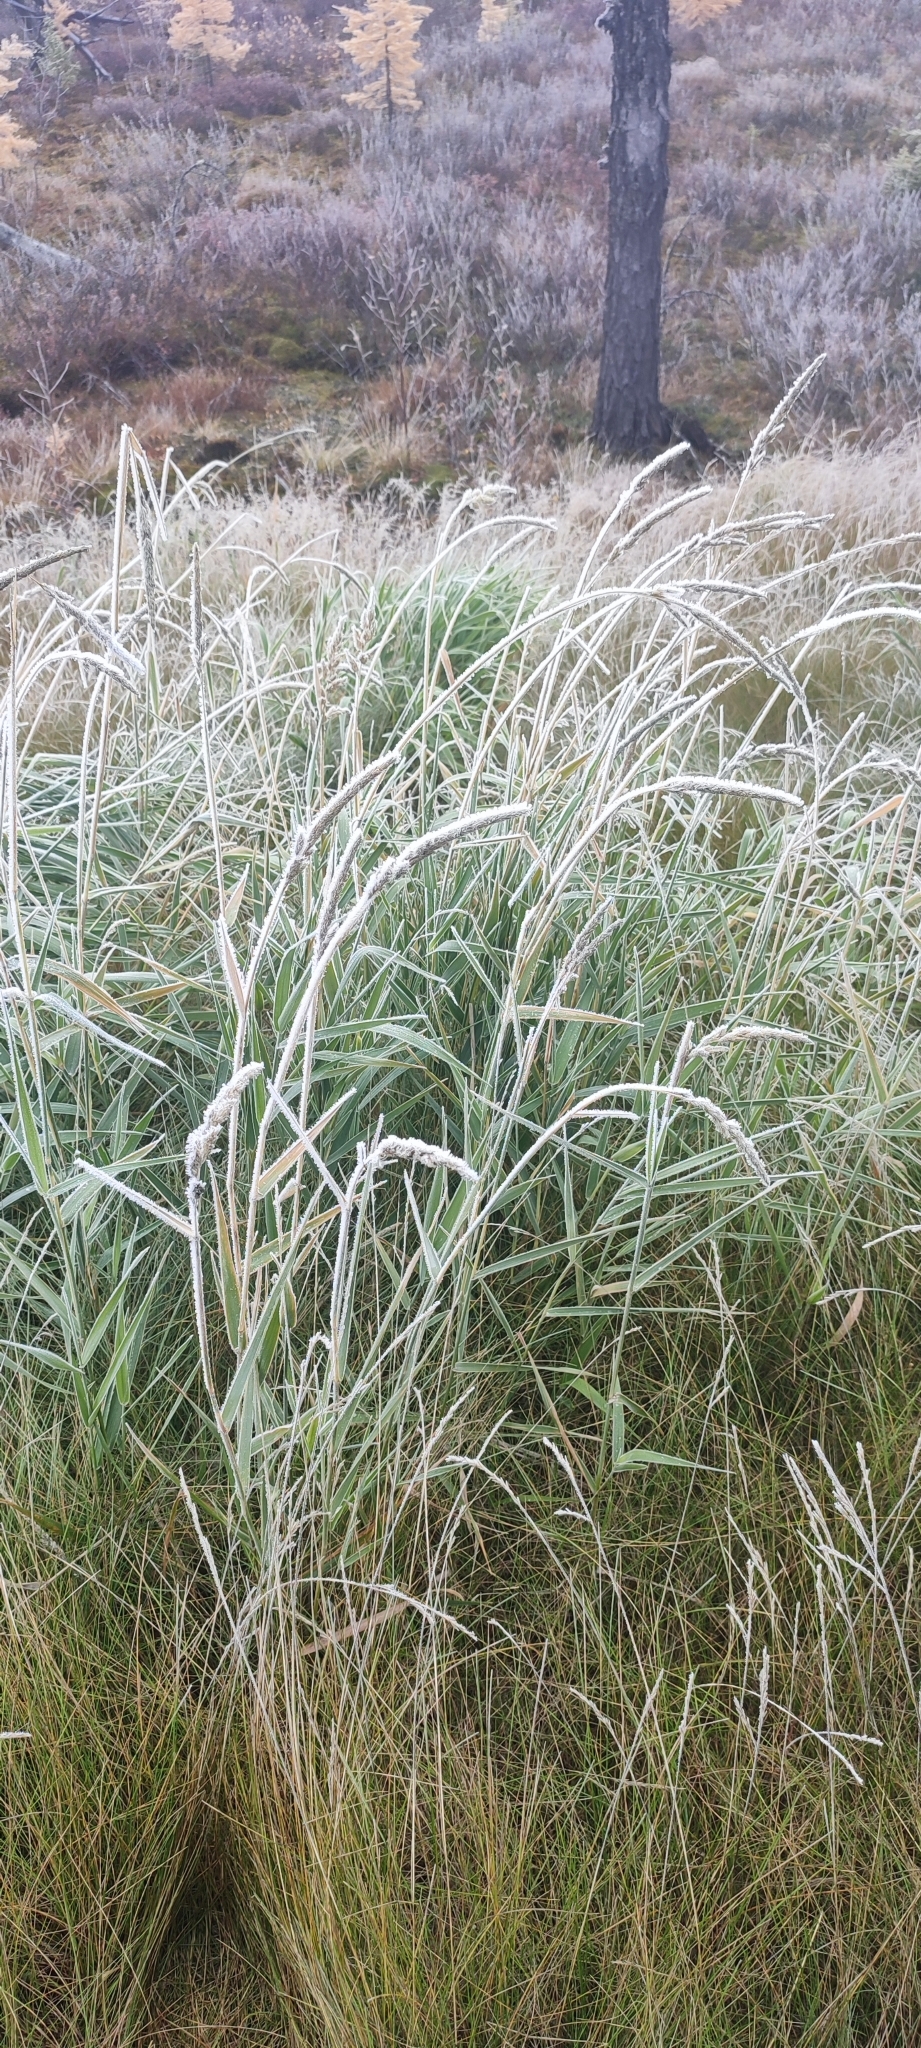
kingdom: Plantae
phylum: Tracheophyta
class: Liliopsida
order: Poales
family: Poaceae
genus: Phalaris
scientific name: Phalaris arundinacea
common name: Reed canary-grass
